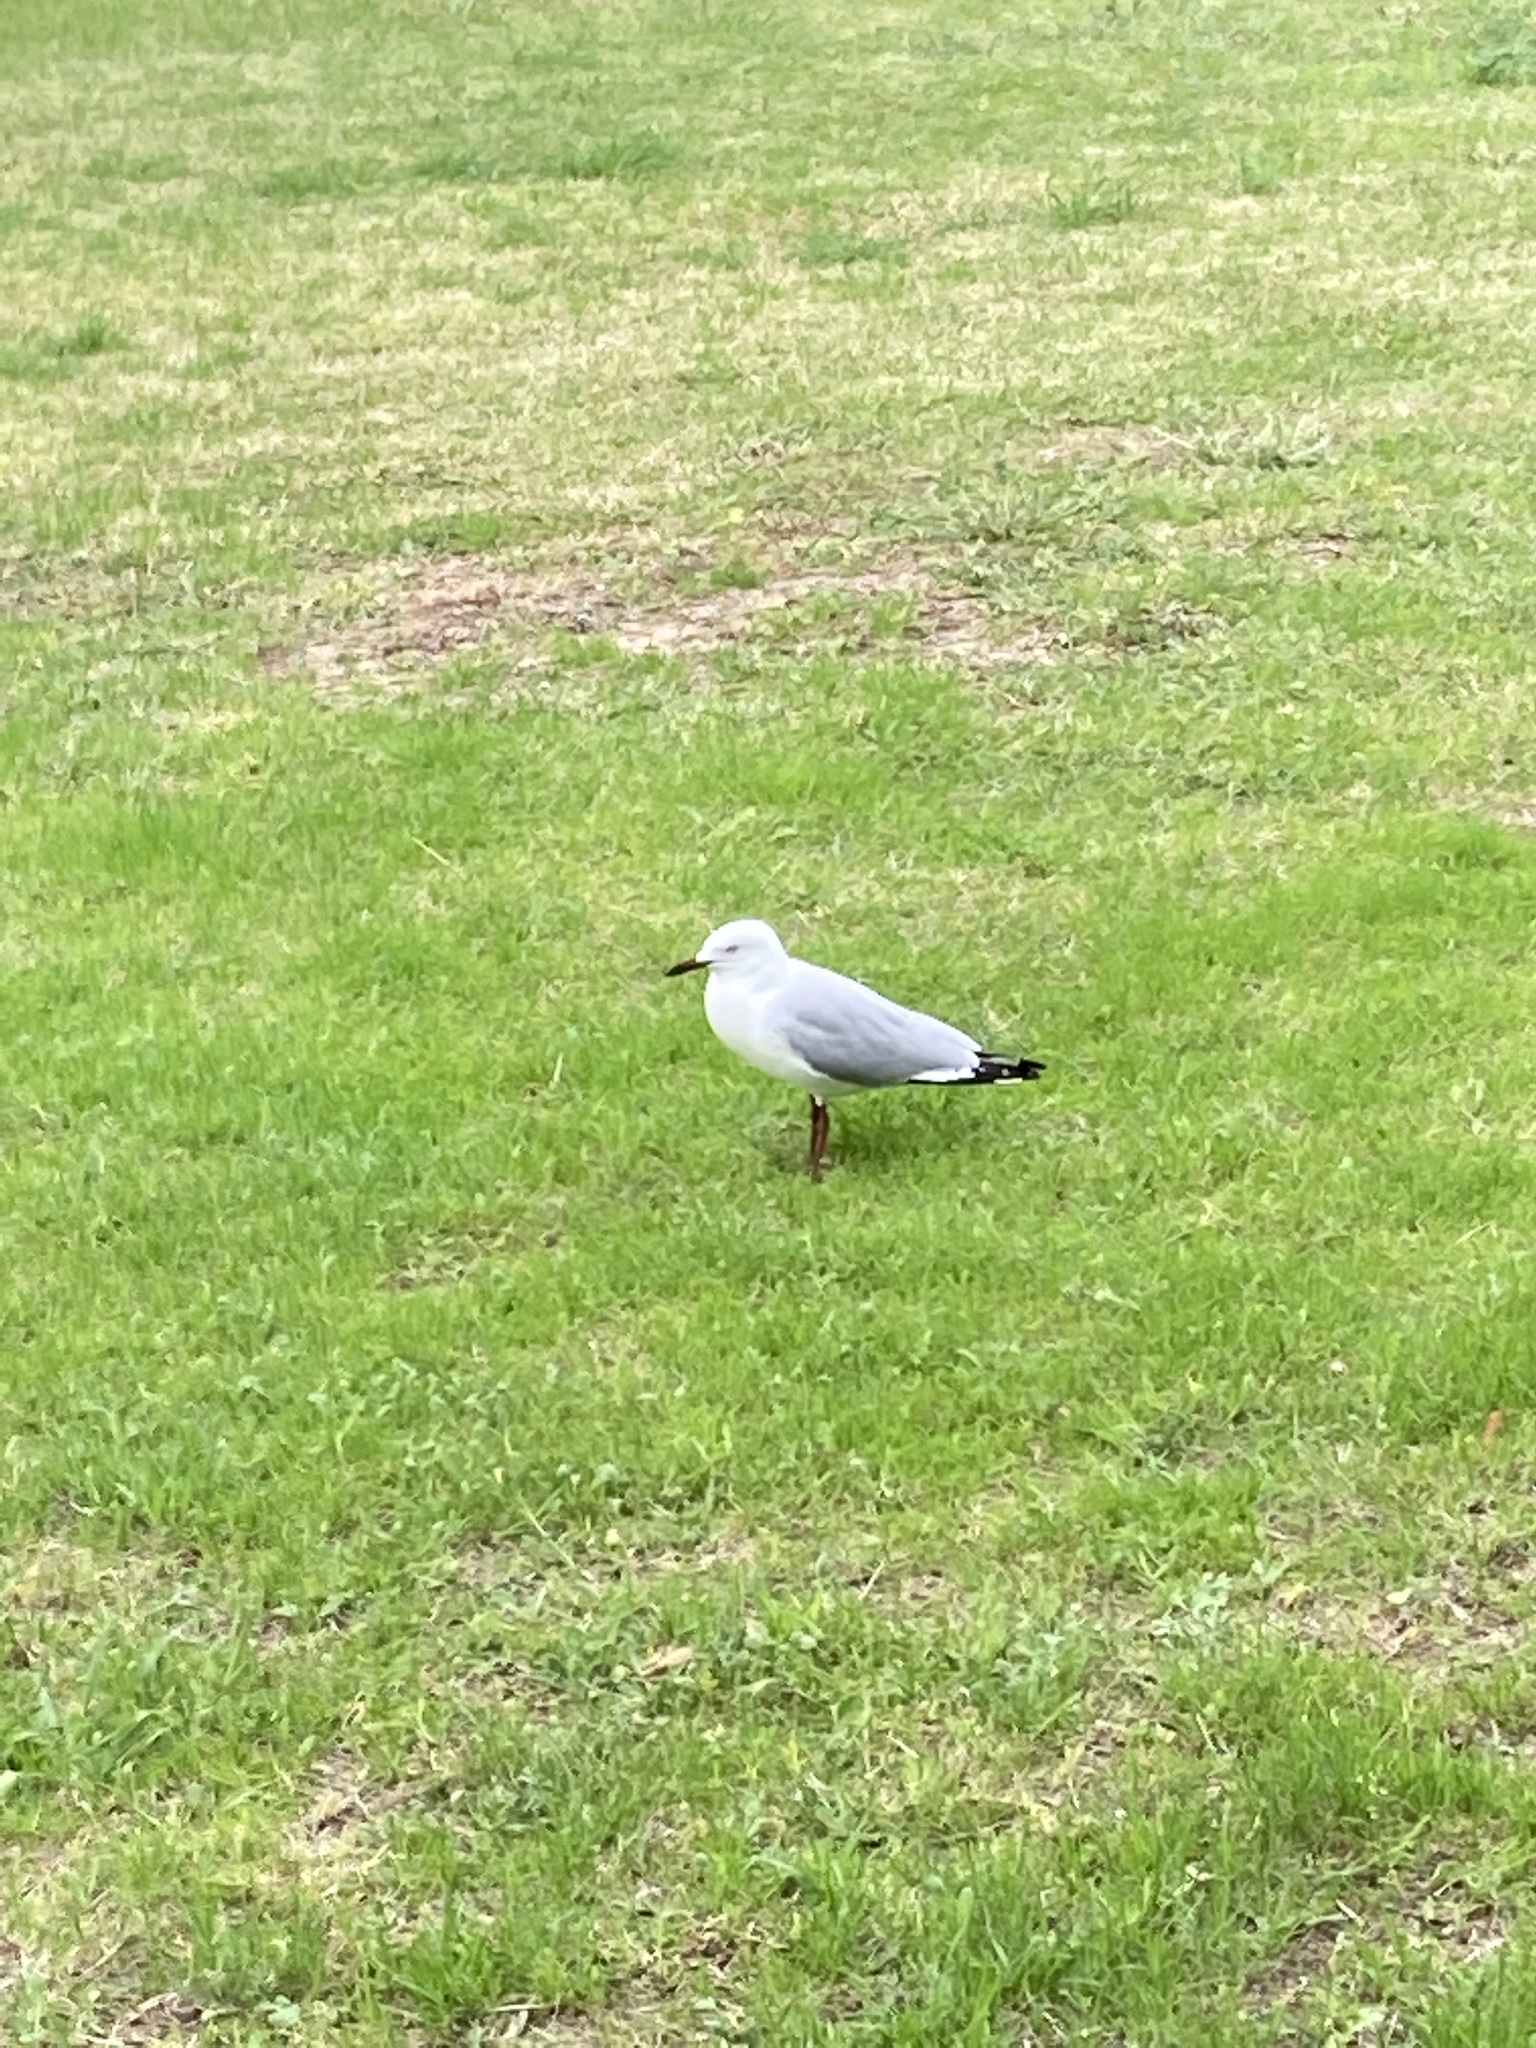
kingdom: Animalia
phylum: Chordata
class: Aves
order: Charadriiformes
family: Laridae
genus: Chroicocephalus
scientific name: Chroicocephalus novaehollandiae
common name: Silver gull
